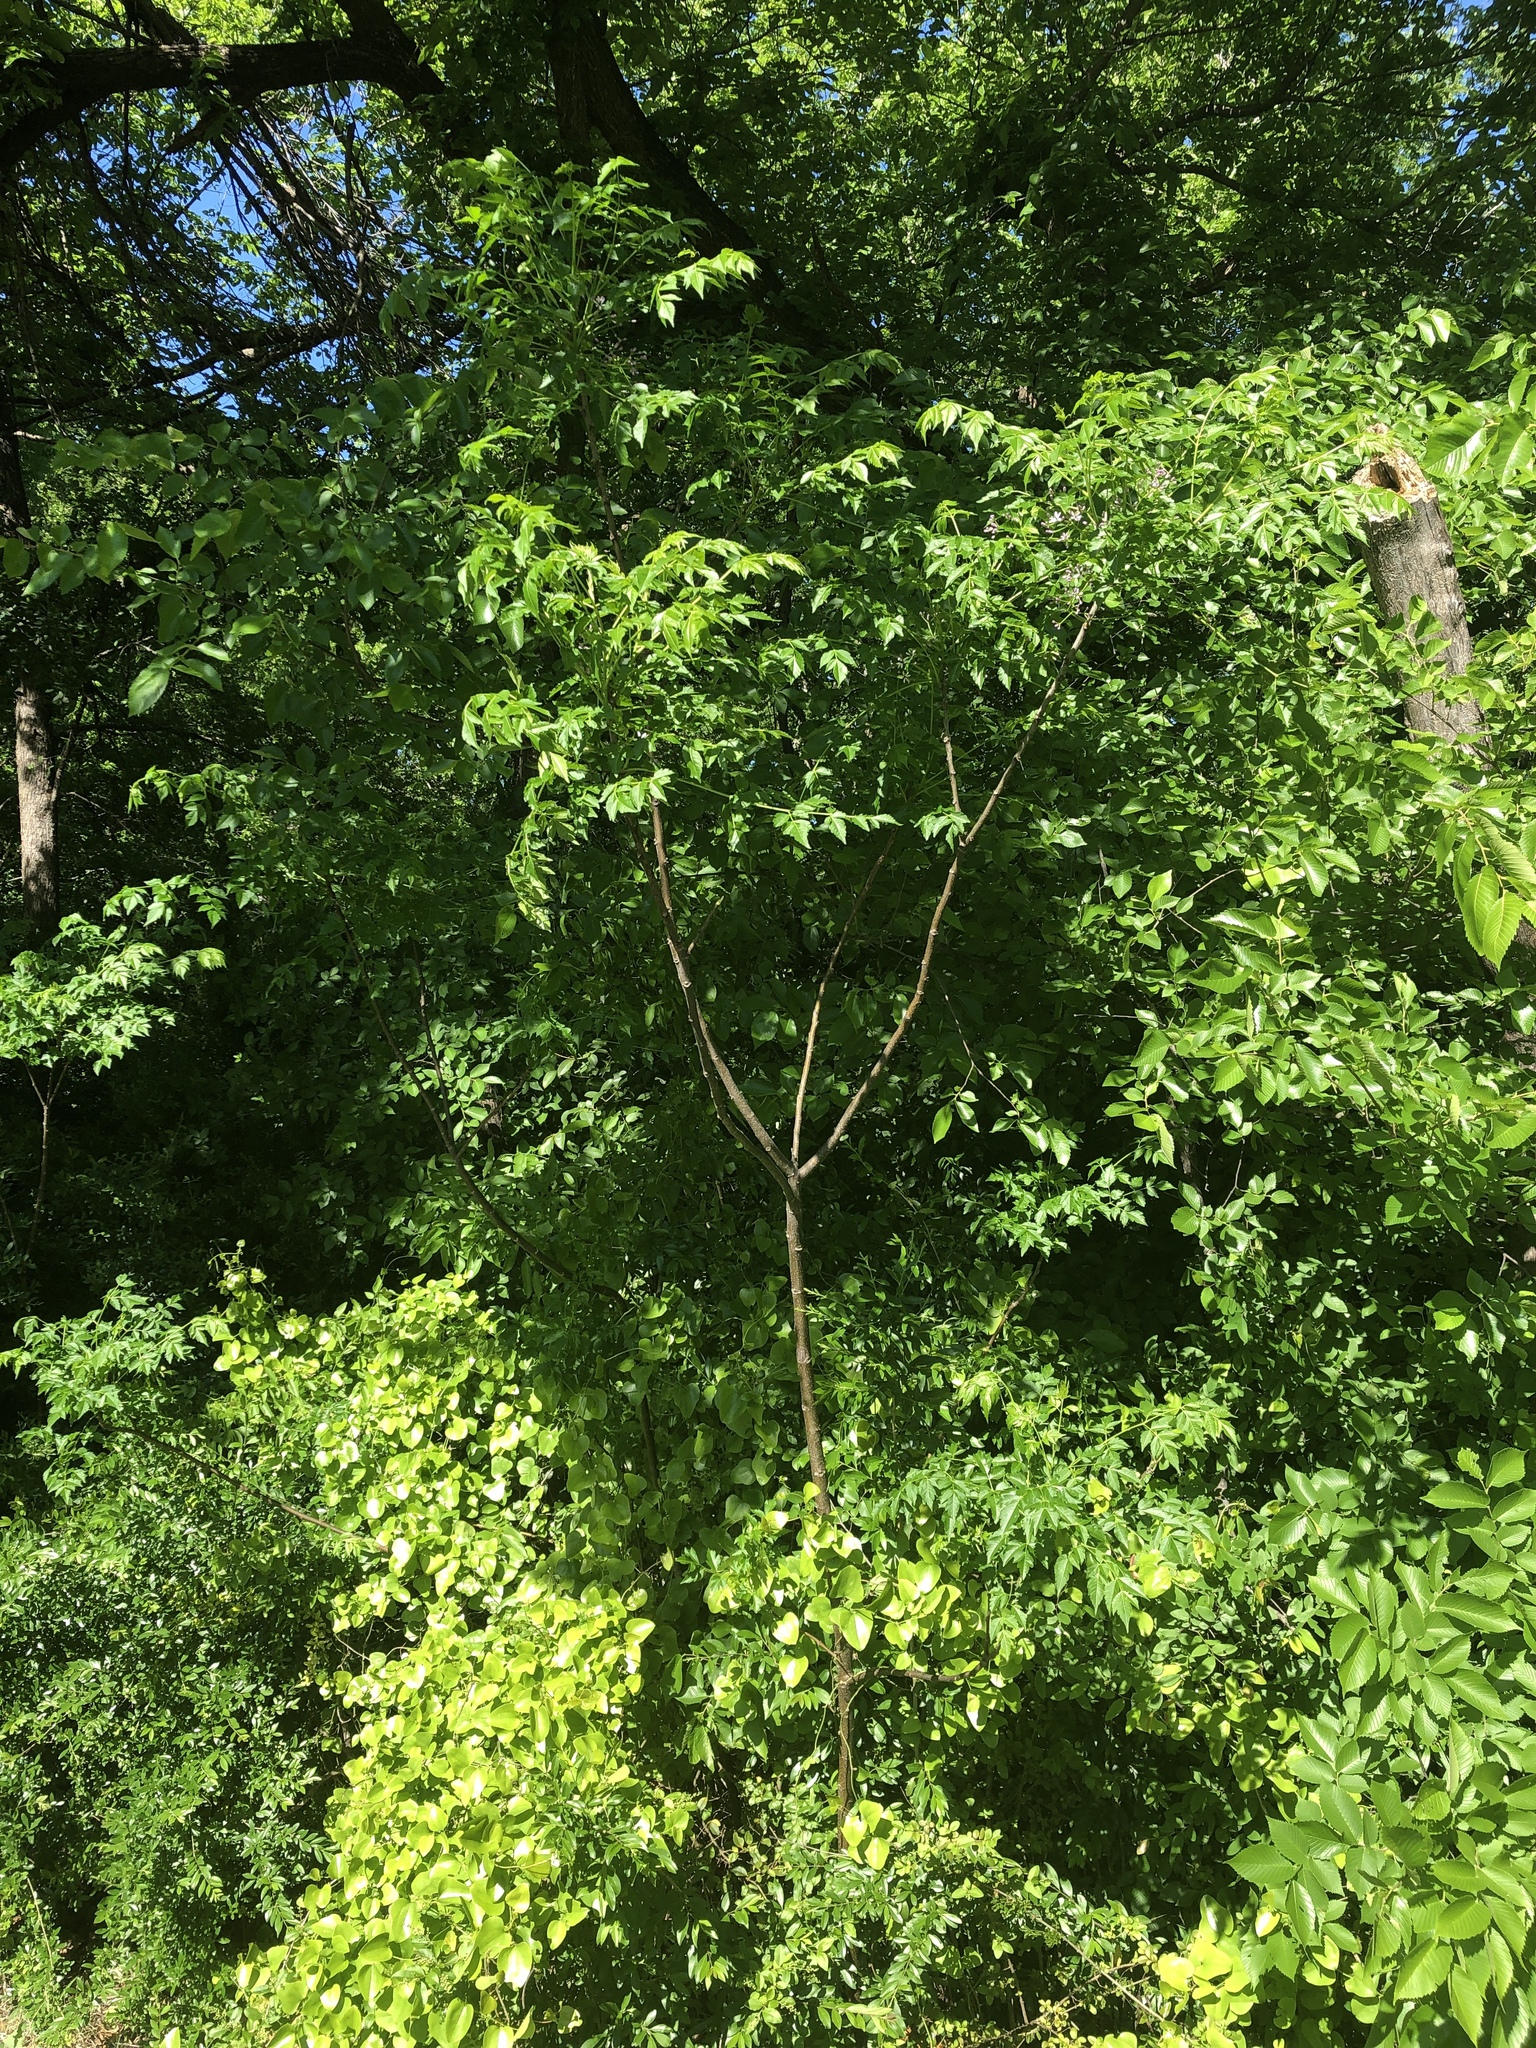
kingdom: Plantae
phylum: Tracheophyta
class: Magnoliopsida
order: Sapindales
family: Meliaceae
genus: Melia
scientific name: Melia azedarach
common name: Chinaberrytree
